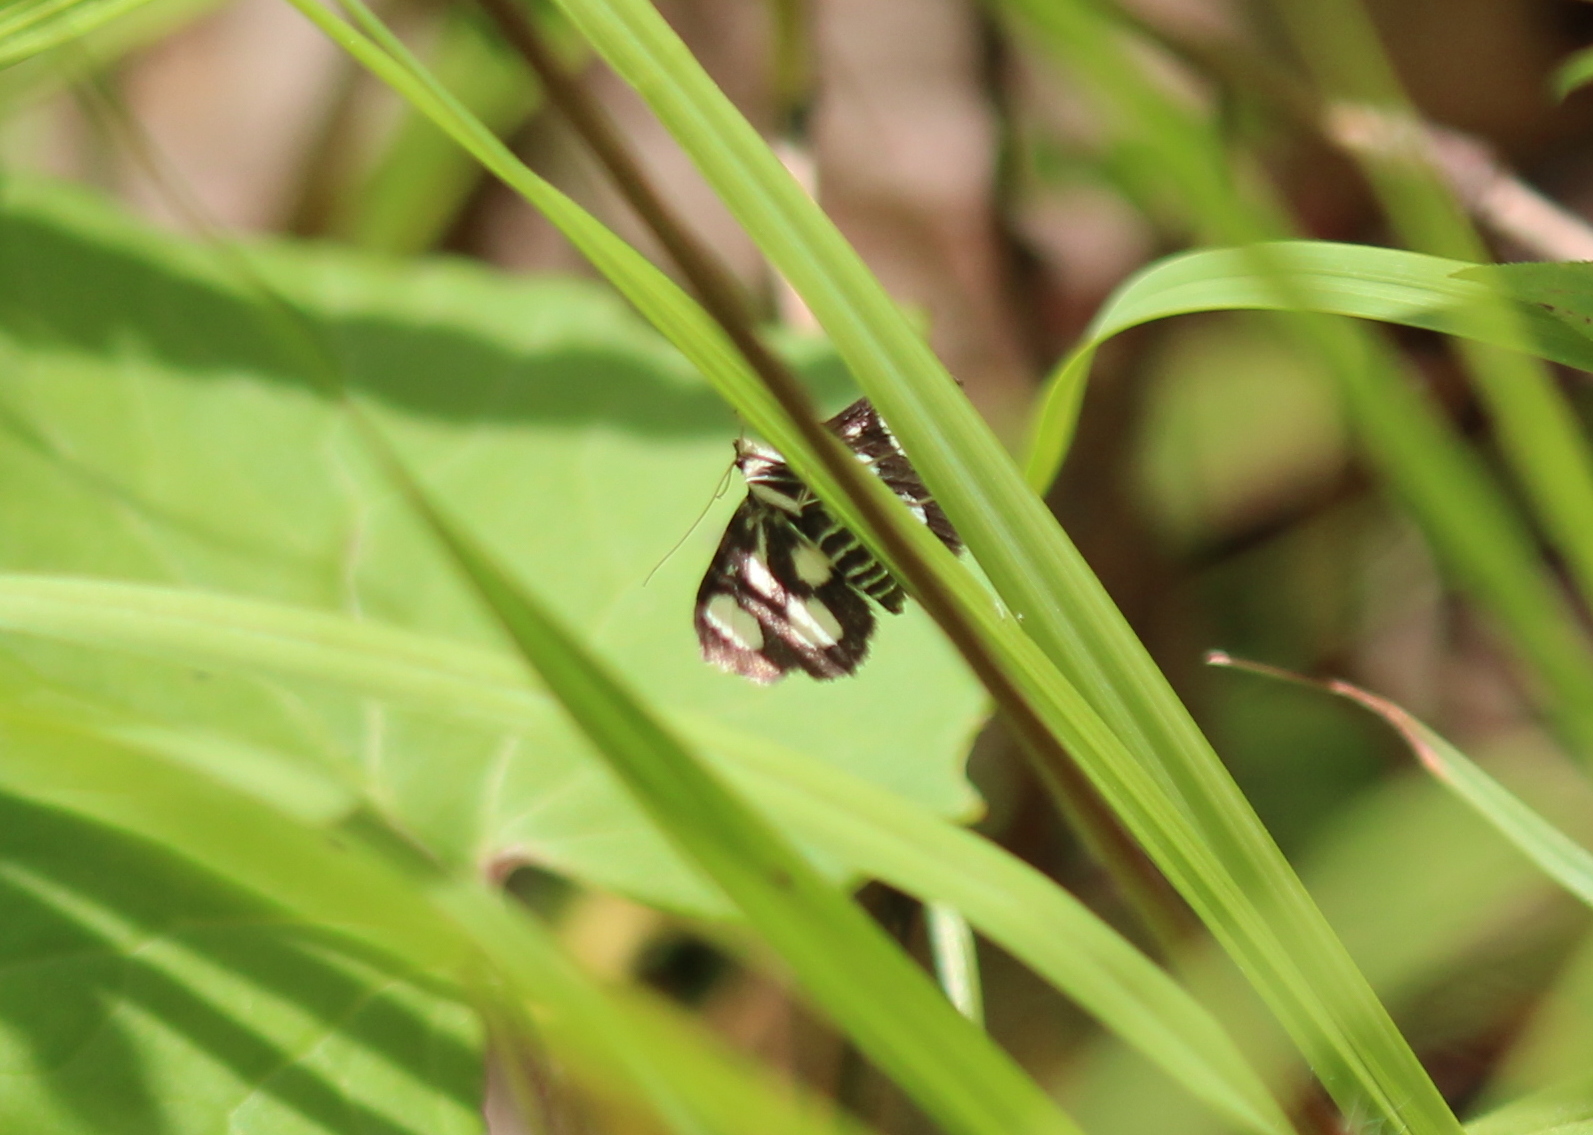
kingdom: Animalia
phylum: Arthropoda
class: Insecta
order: Lepidoptera
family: Crambidae
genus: Anania
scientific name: Anania funebris
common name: White-spotted sable moth
